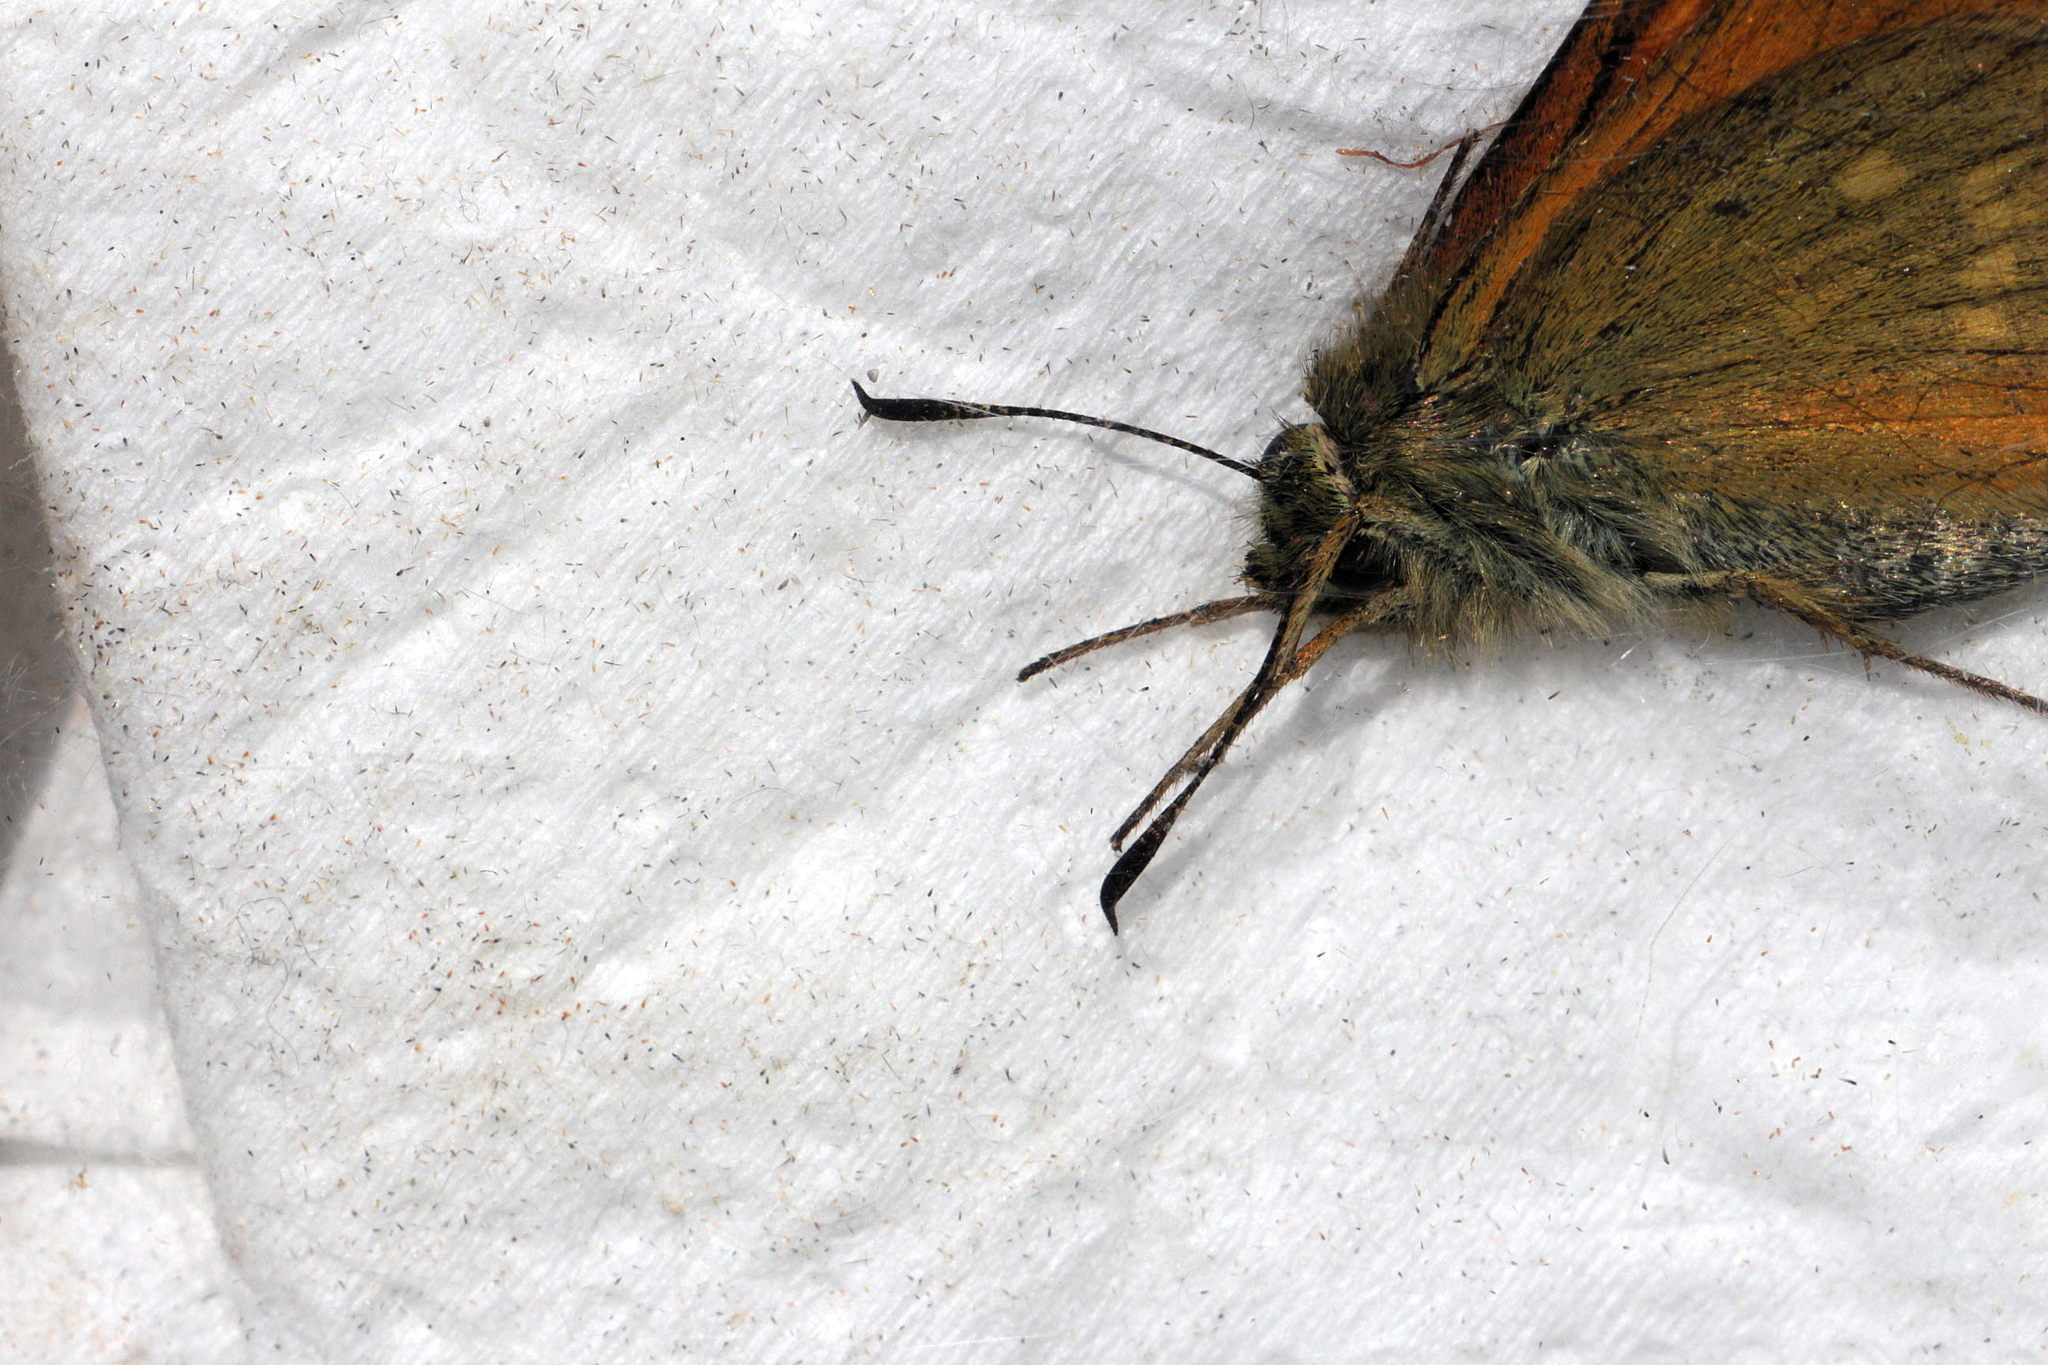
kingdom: Animalia
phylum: Arthropoda
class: Insecta
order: Lepidoptera
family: Hesperiidae
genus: Ochlodes
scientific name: Ochlodes venata
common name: Large skipper
